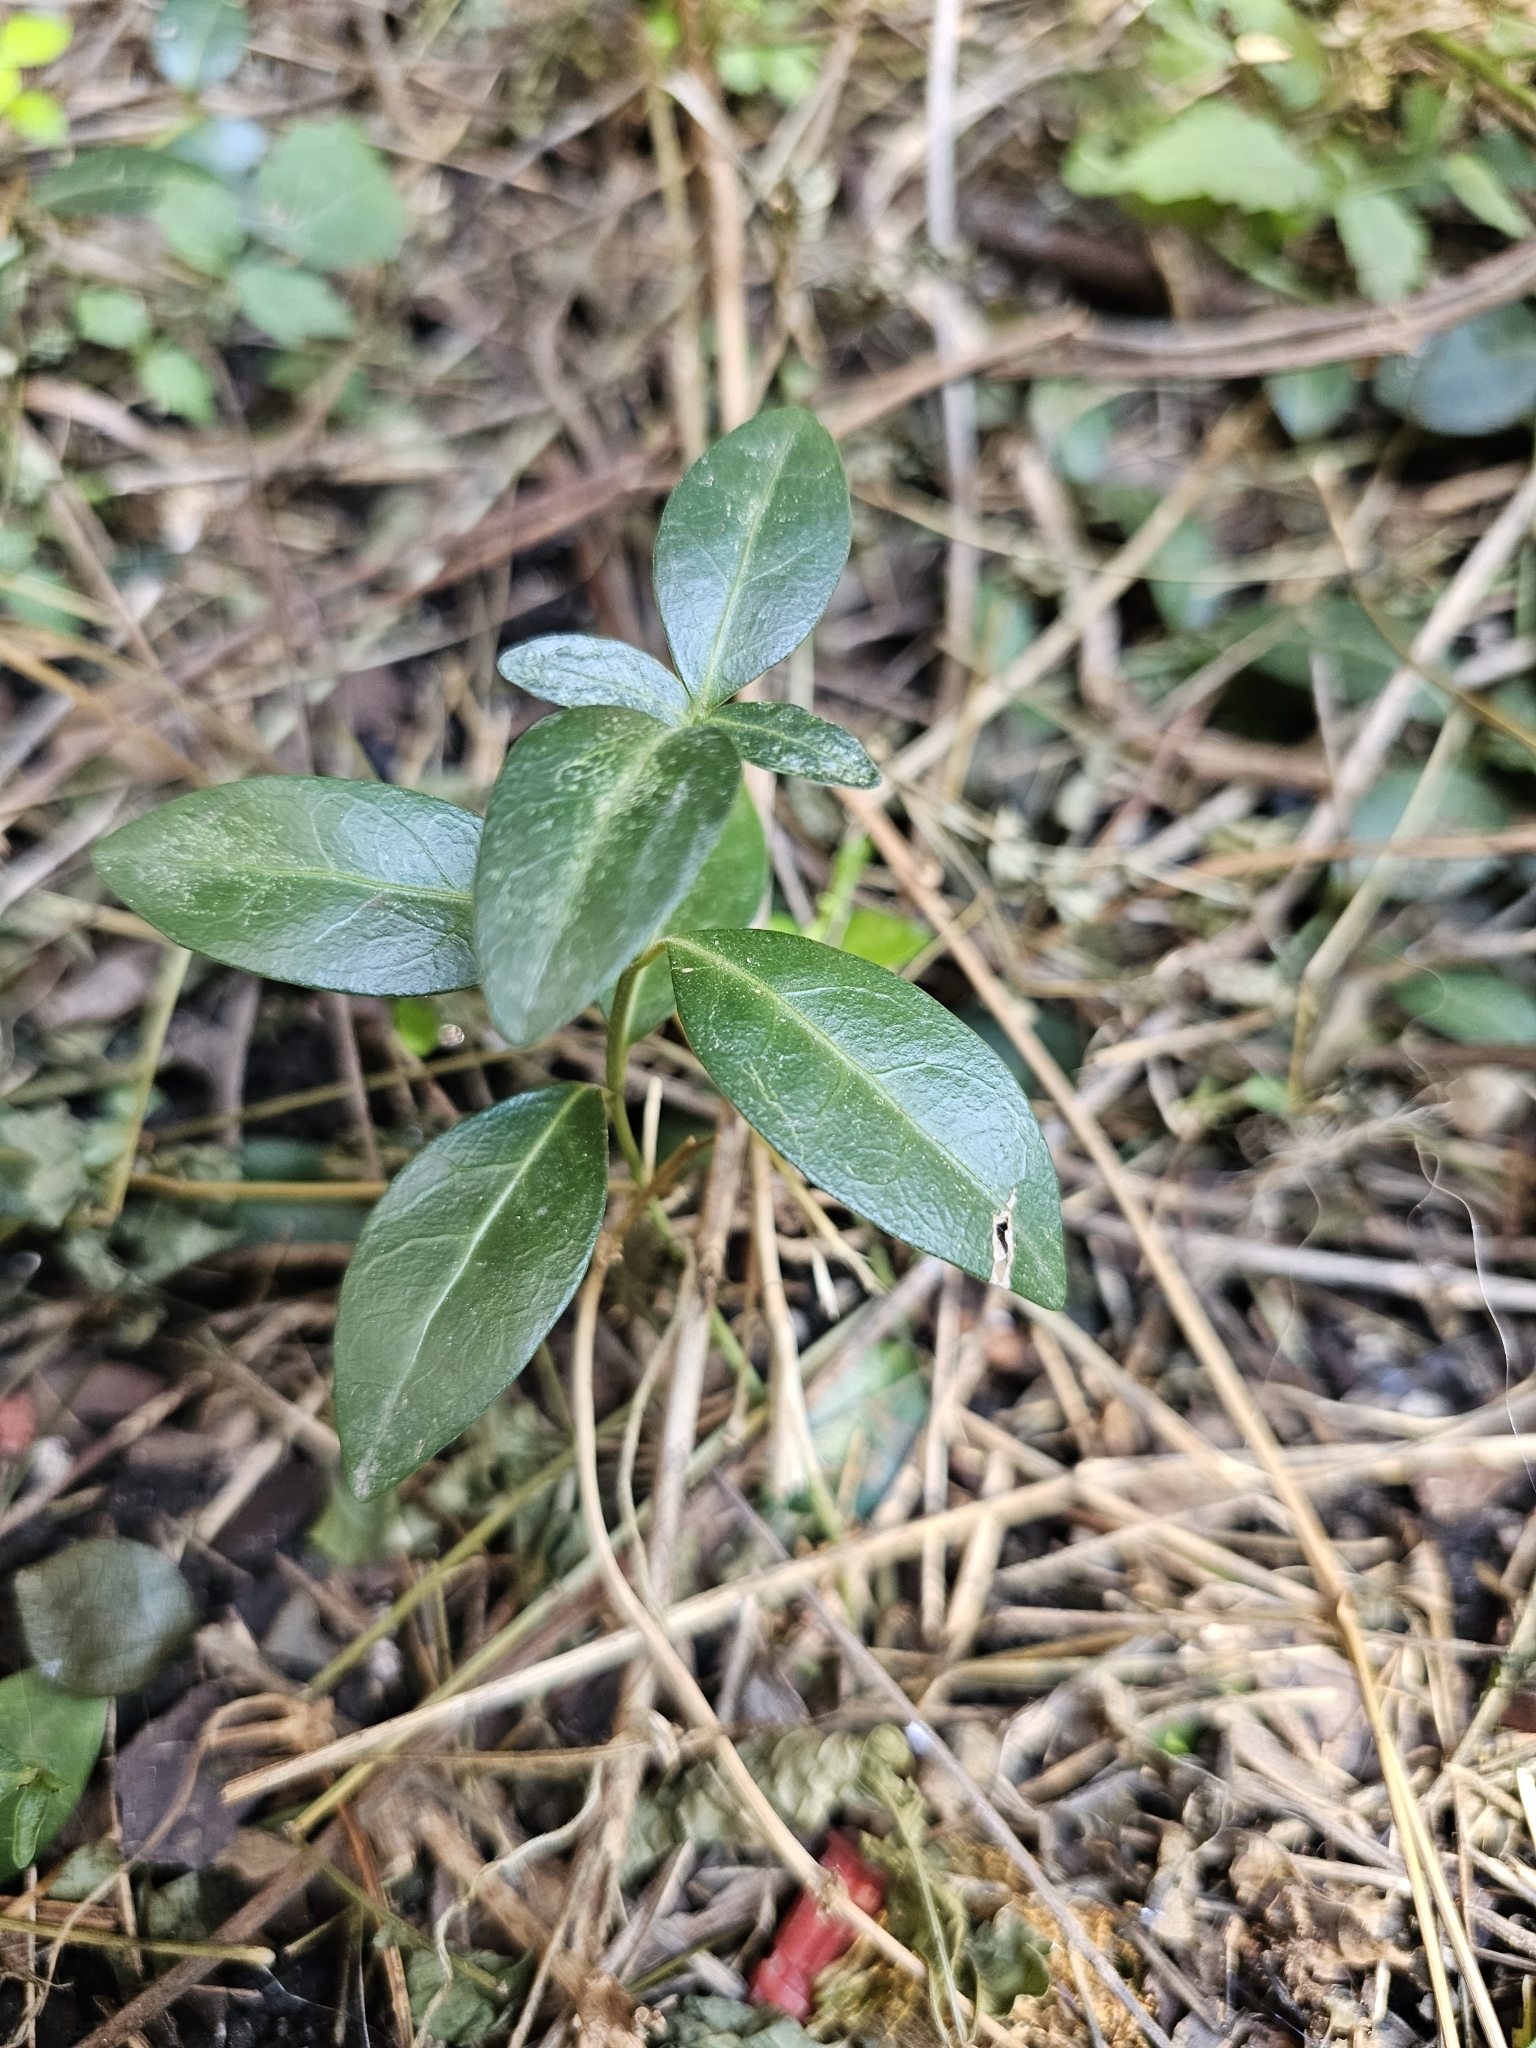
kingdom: Plantae
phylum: Tracheophyta
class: Magnoliopsida
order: Gentianales
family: Apocynaceae
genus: Vinca
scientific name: Vinca minor
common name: Lesser periwinkle
